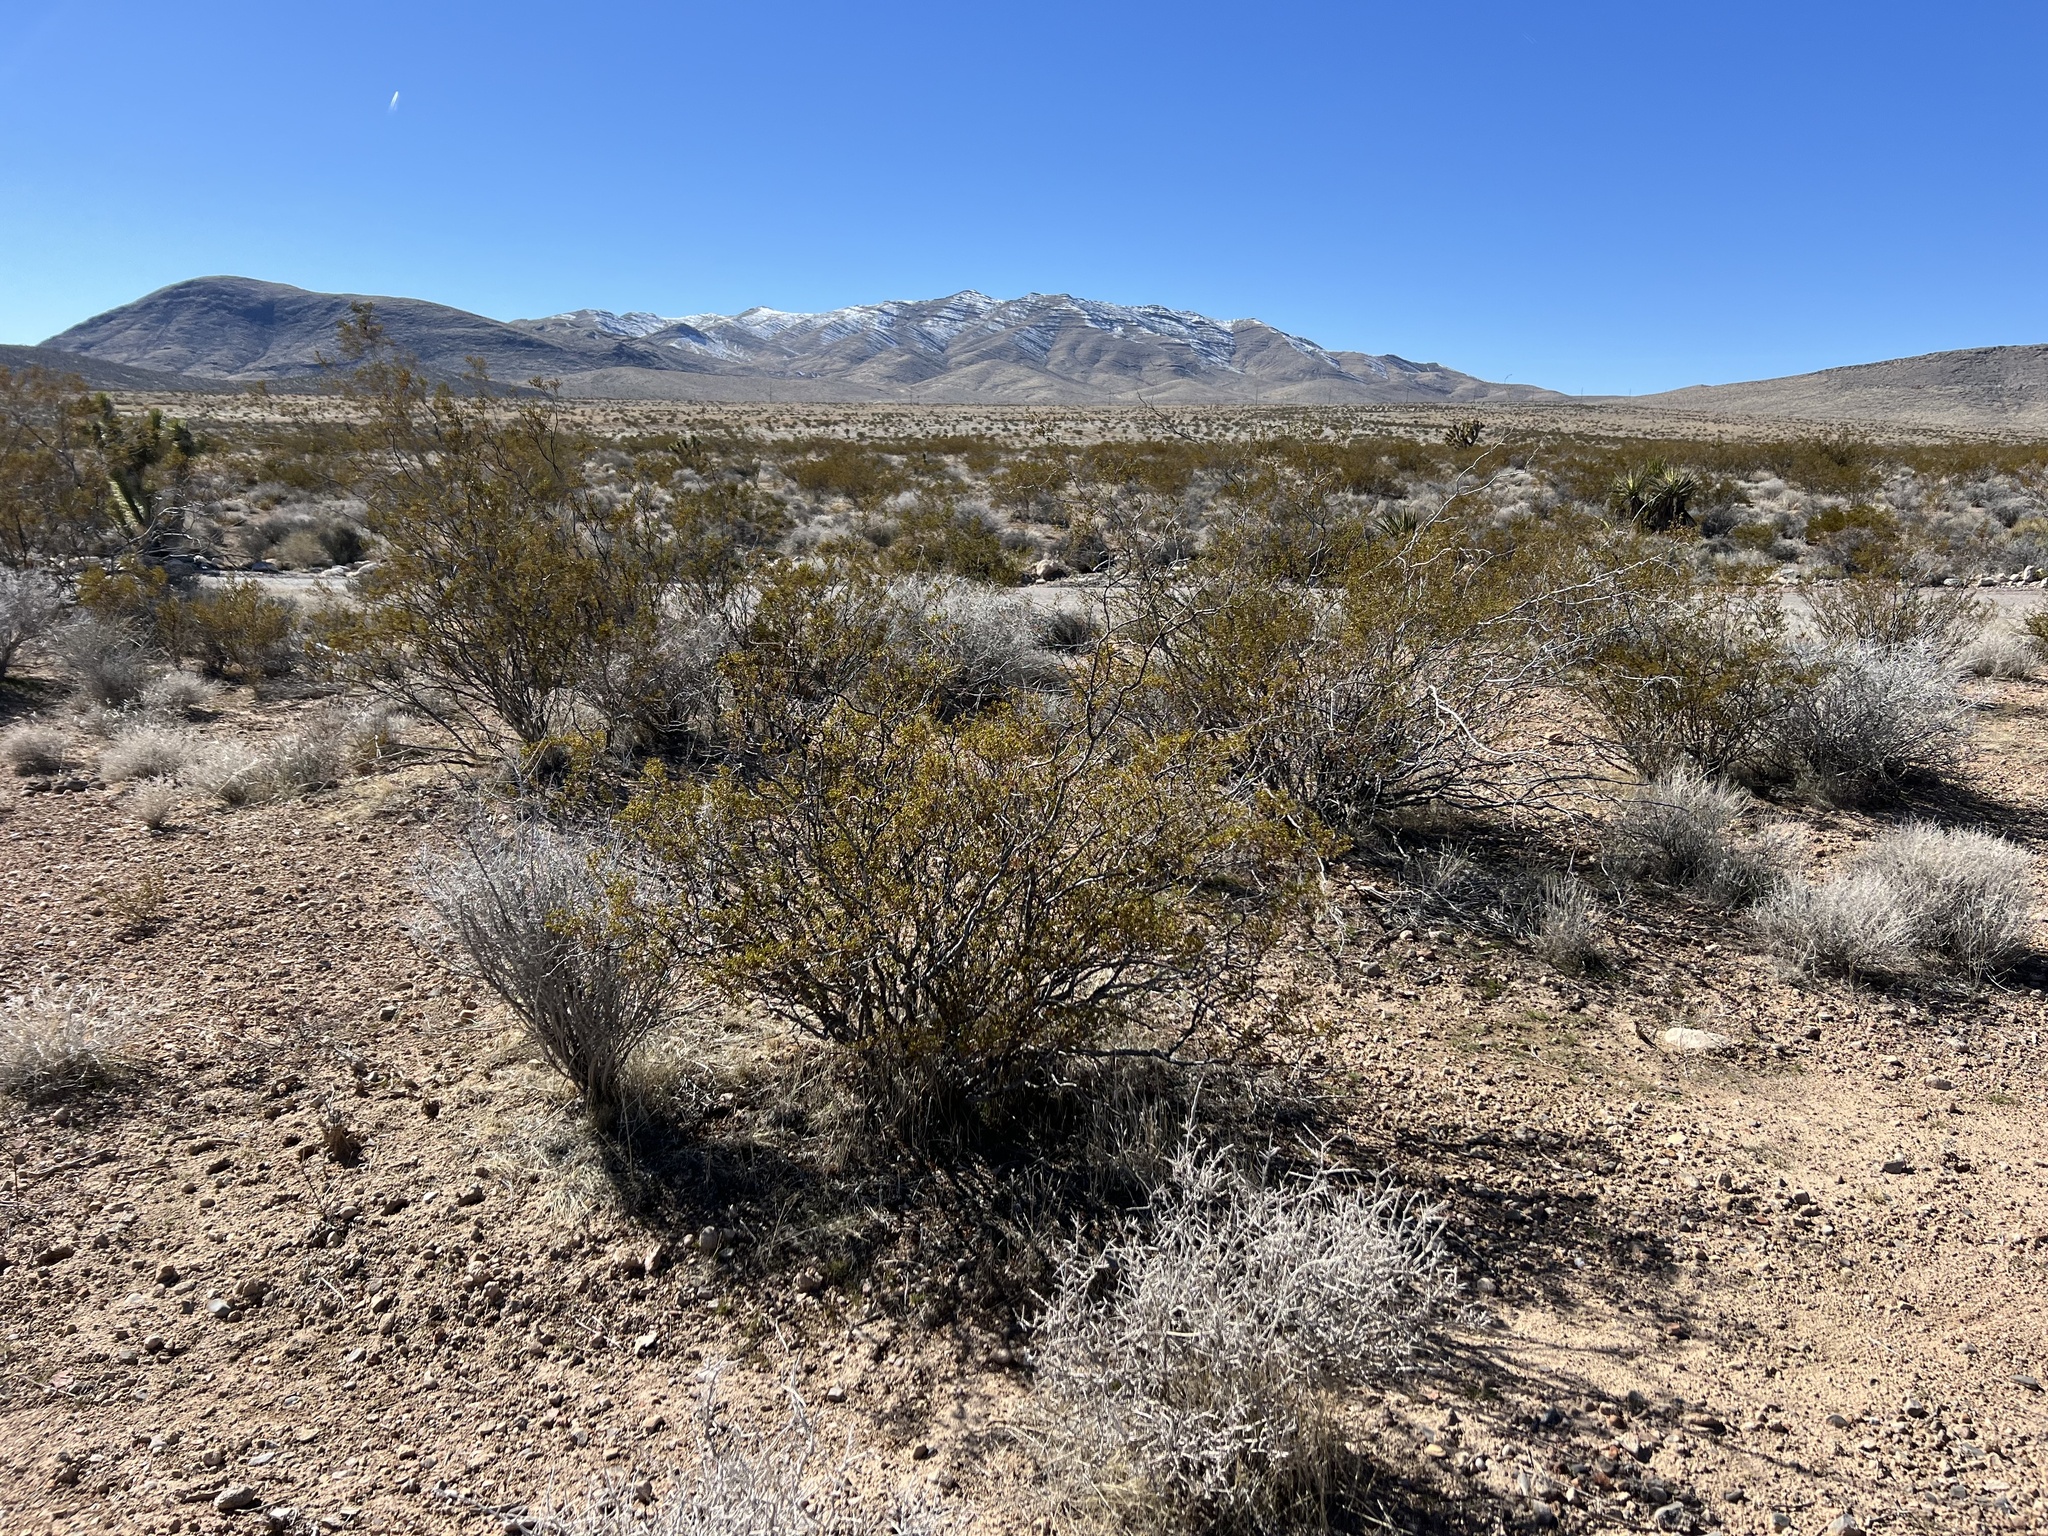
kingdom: Plantae
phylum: Tracheophyta
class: Magnoliopsida
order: Zygophyllales
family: Zygophyllaceae
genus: Larrea
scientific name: Larrea tridentata
